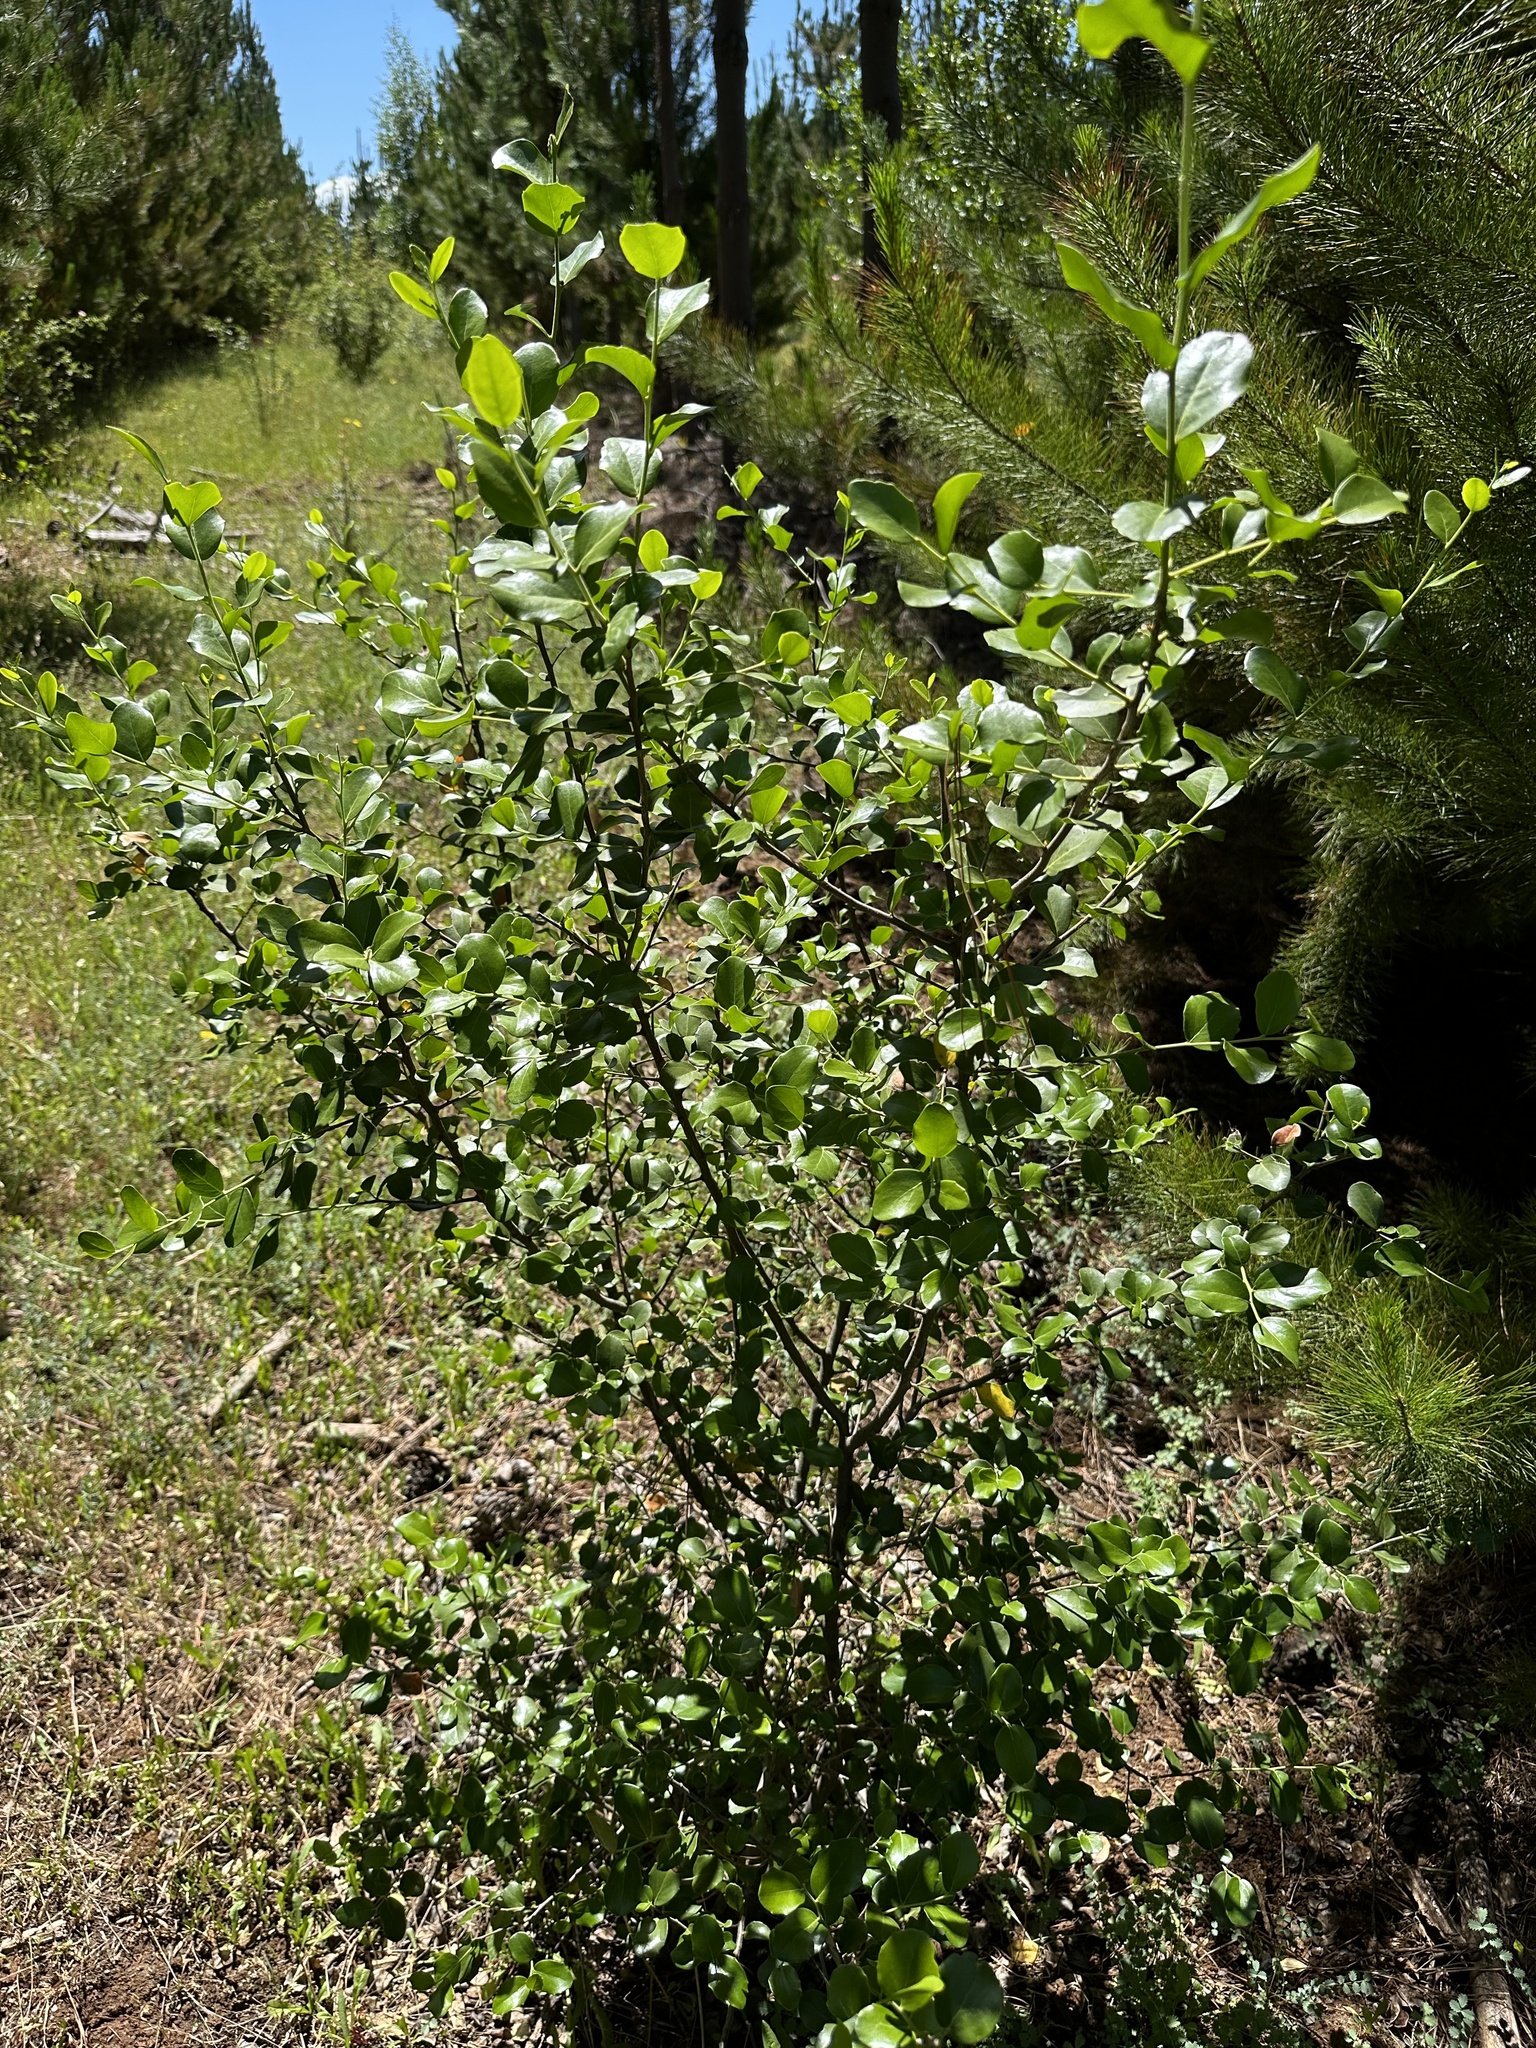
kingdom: Plantae
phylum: Tracheophyta
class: Magnoliopsida
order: Fabales
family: Quillajaceae
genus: Quillaja
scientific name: Quillaja saponaria
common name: Murillo's-bark
